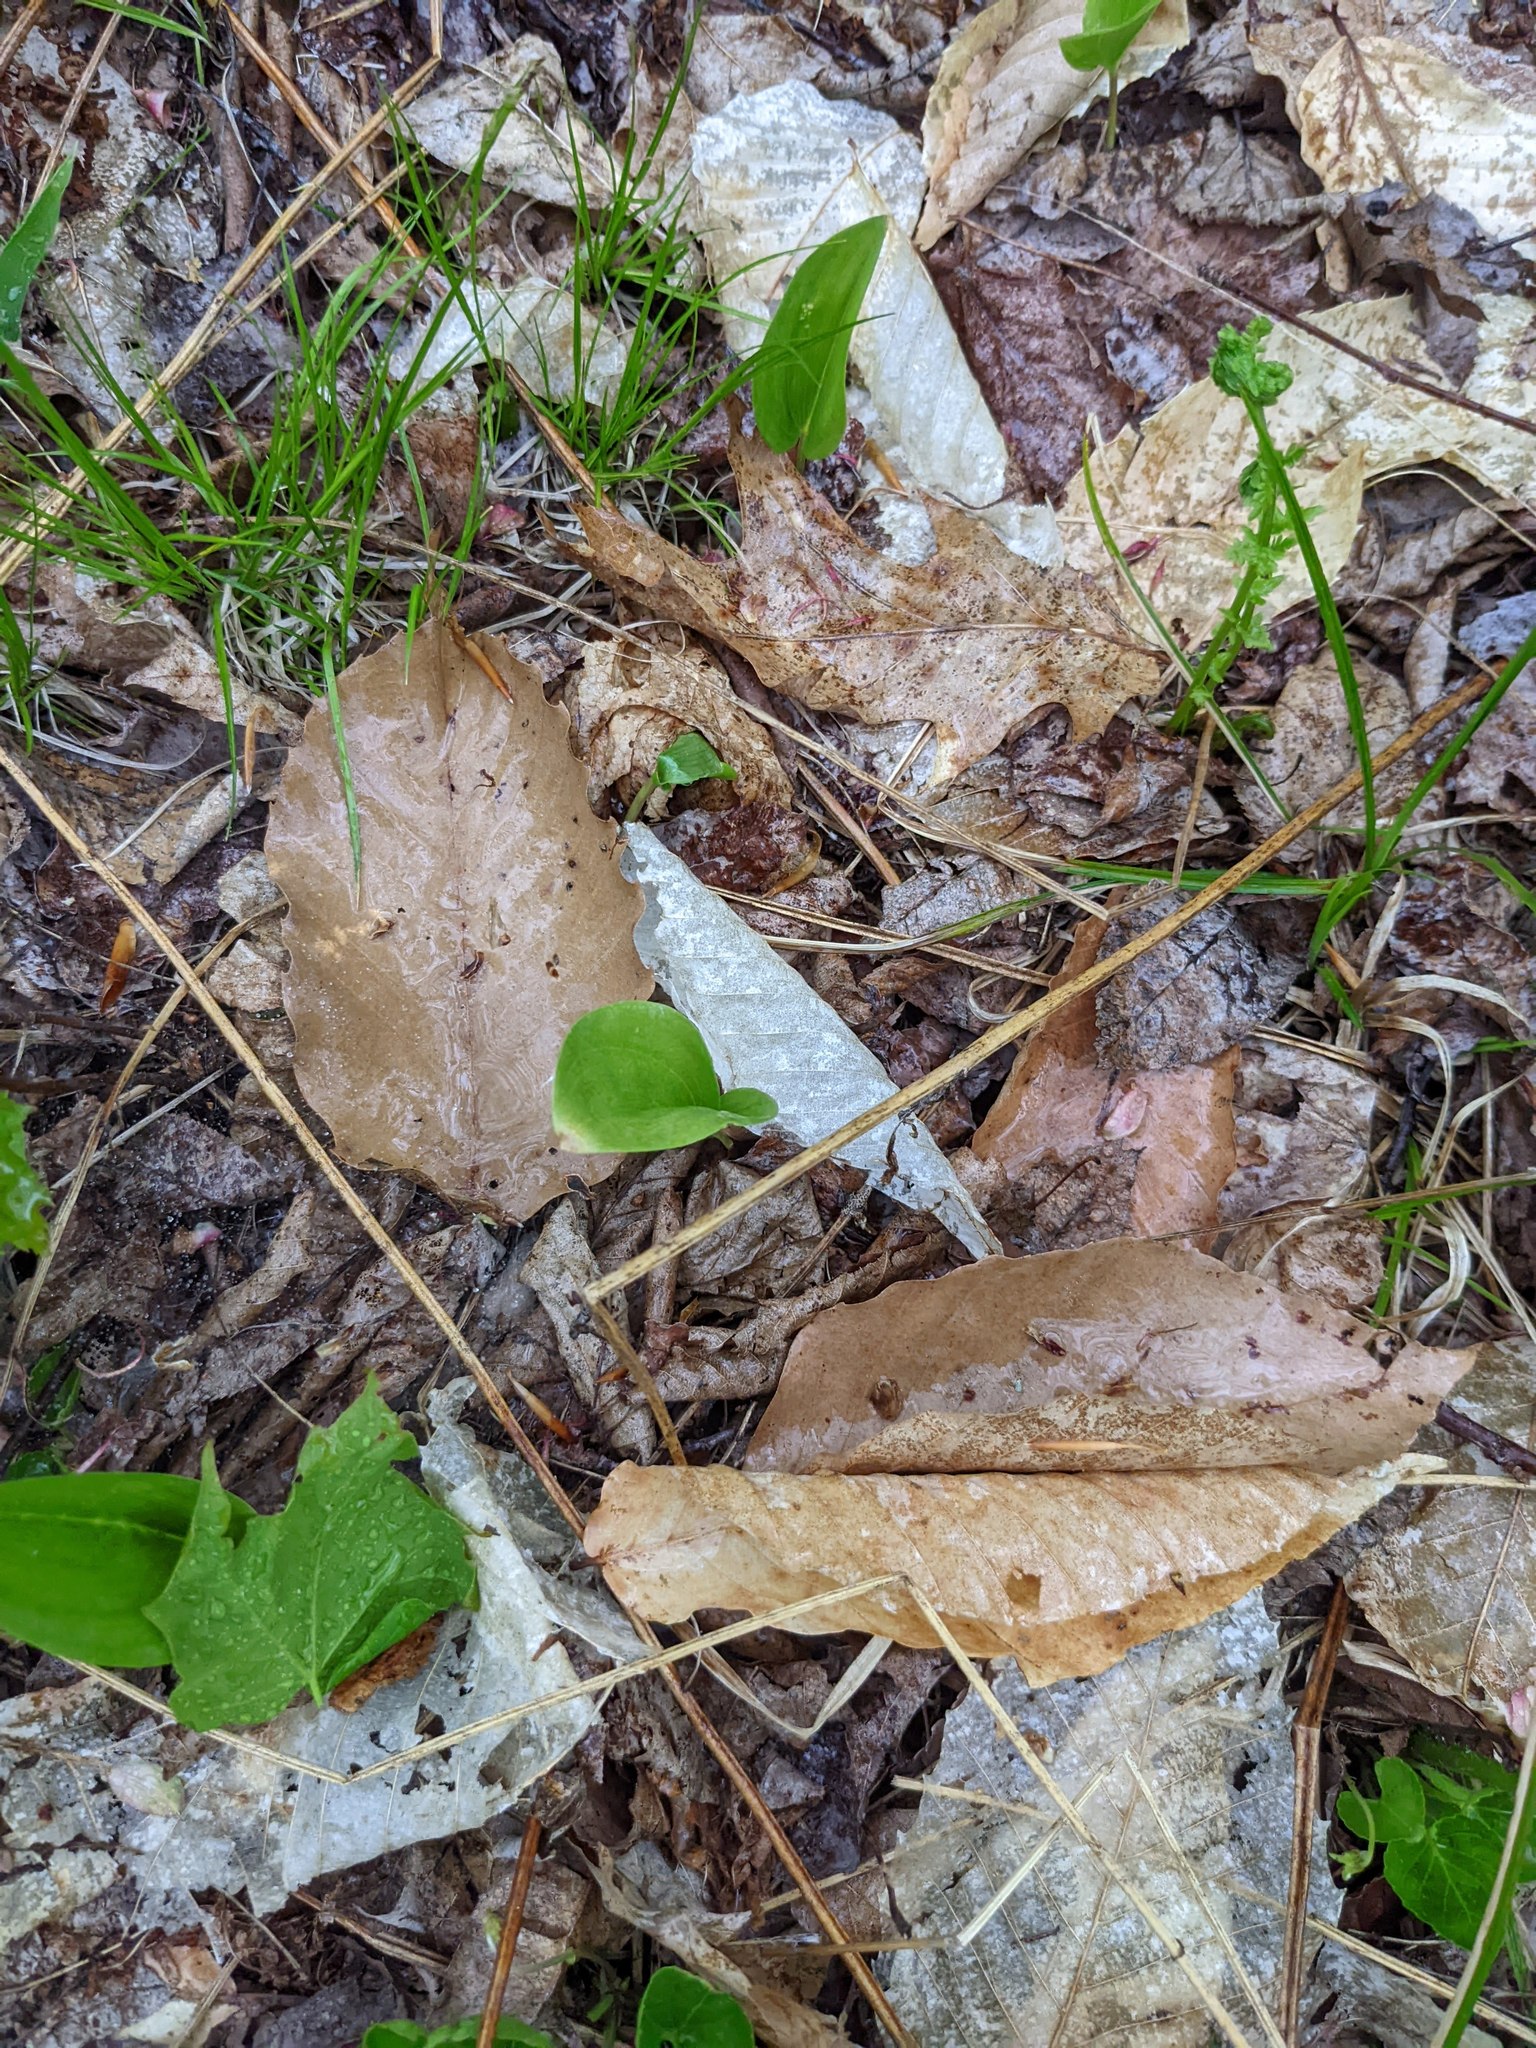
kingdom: Plantae
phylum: Tracheophyta
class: Liliopsida
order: Asparagales
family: Asparagaceae
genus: Maianthemum
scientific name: Maianthemum canadense
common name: False lily-of-the-valley
